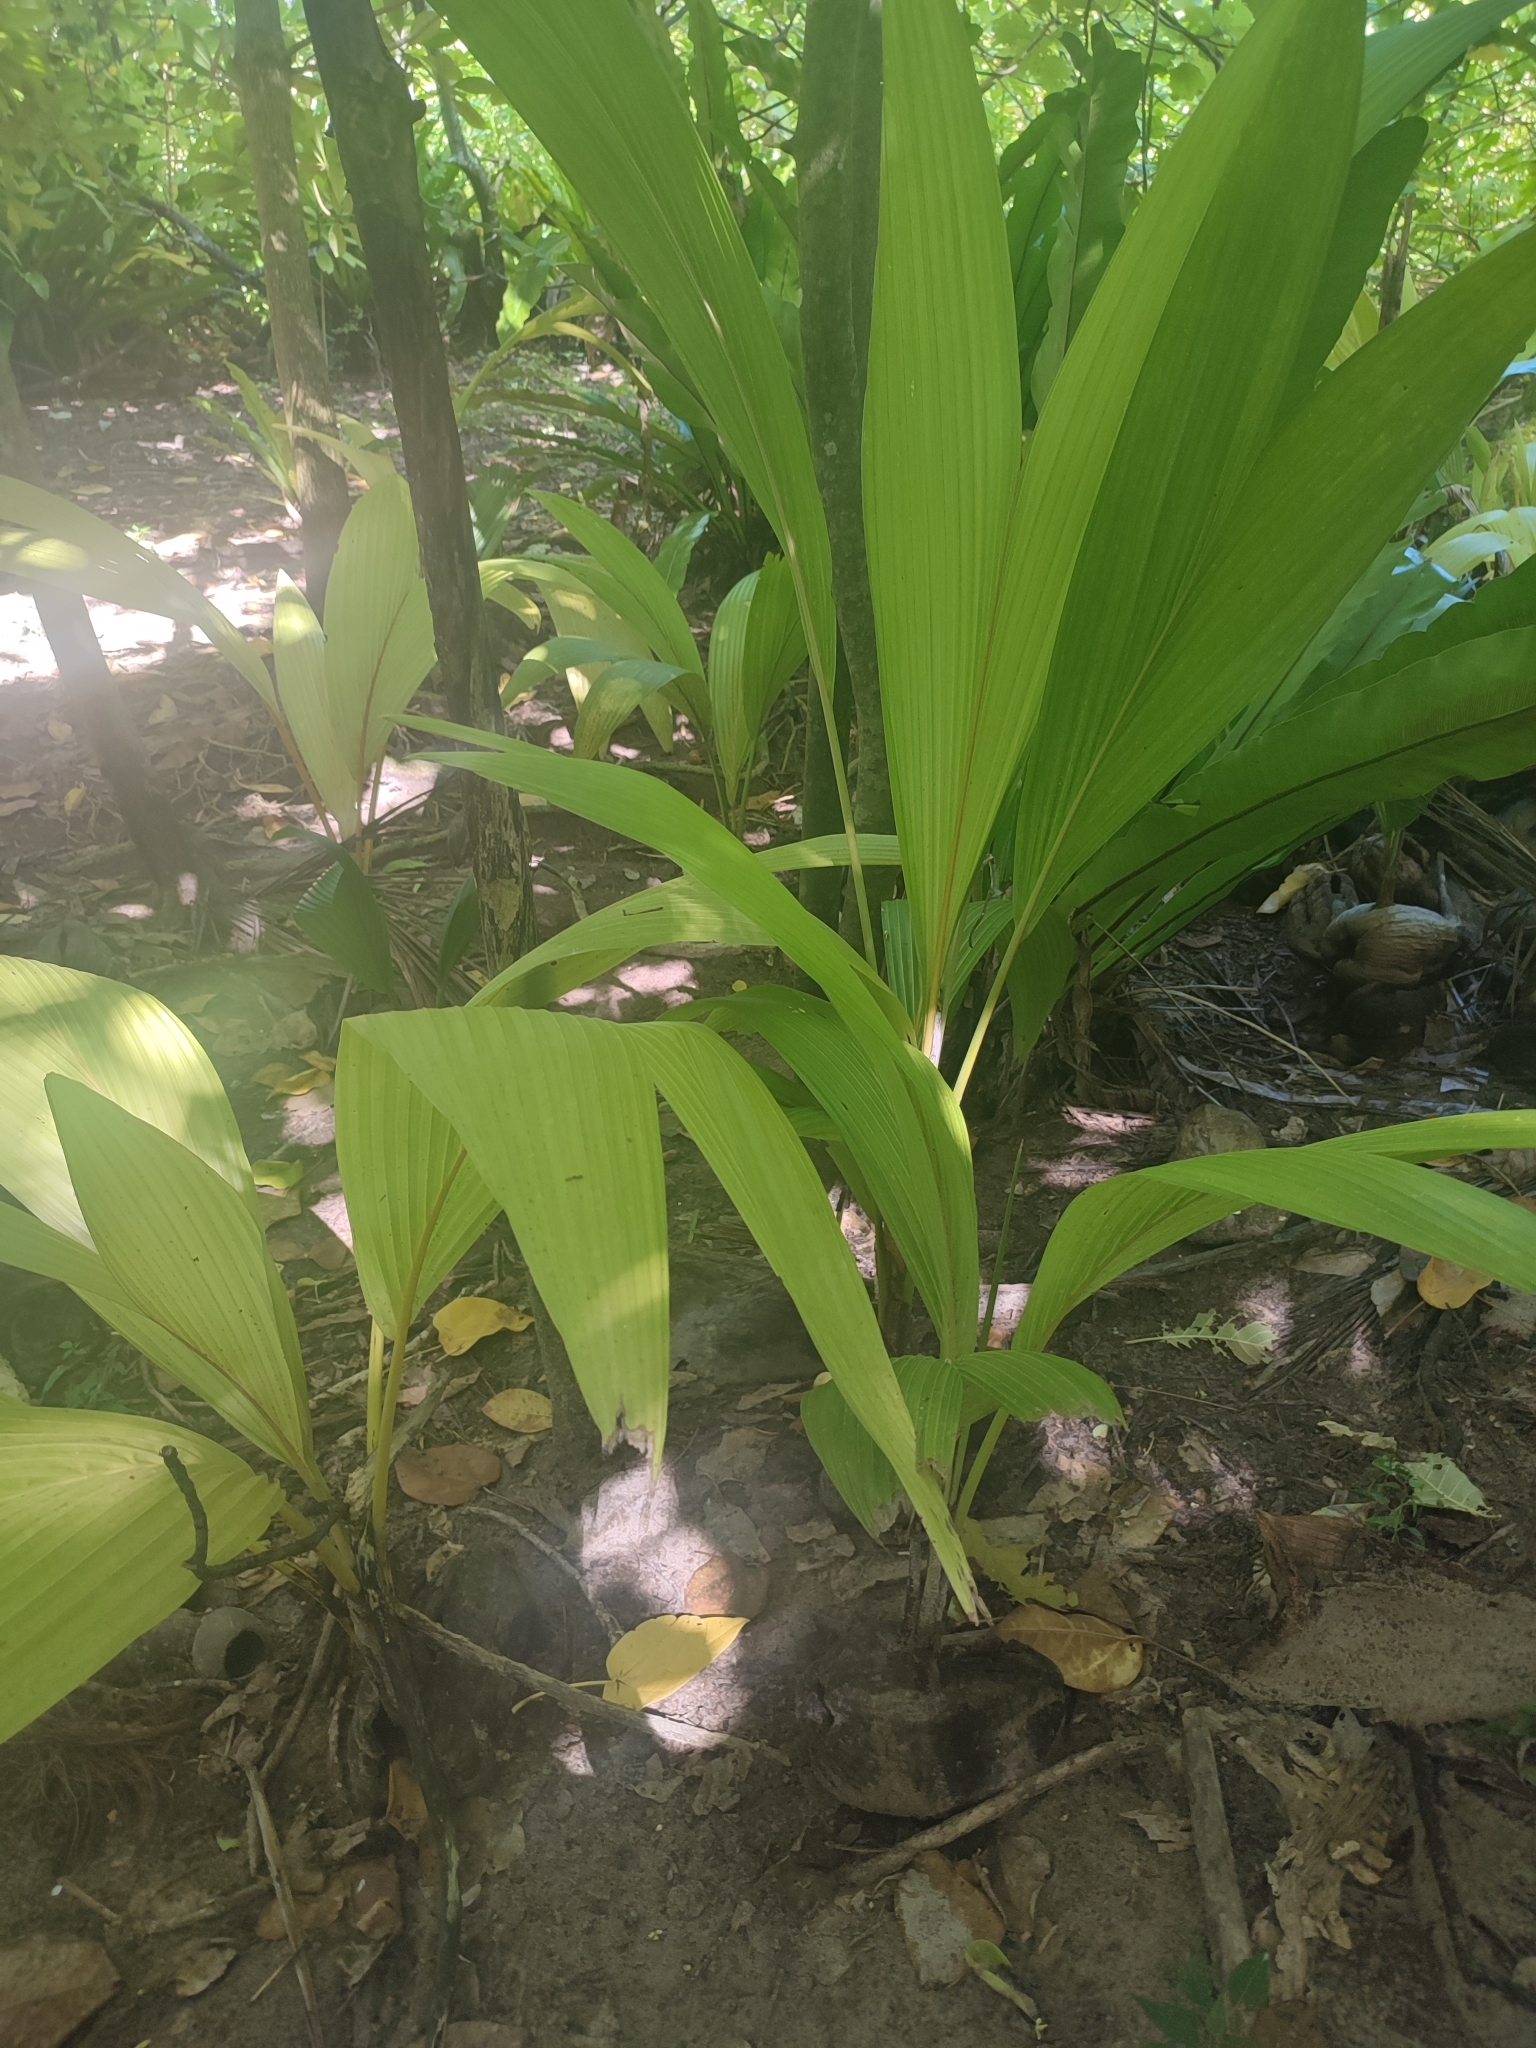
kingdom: Plantae
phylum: Tracheophyta
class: Liliopsida
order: Arecales
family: Arecaceae
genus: Cocos
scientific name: Cocos nucifera
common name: Coconut palm
